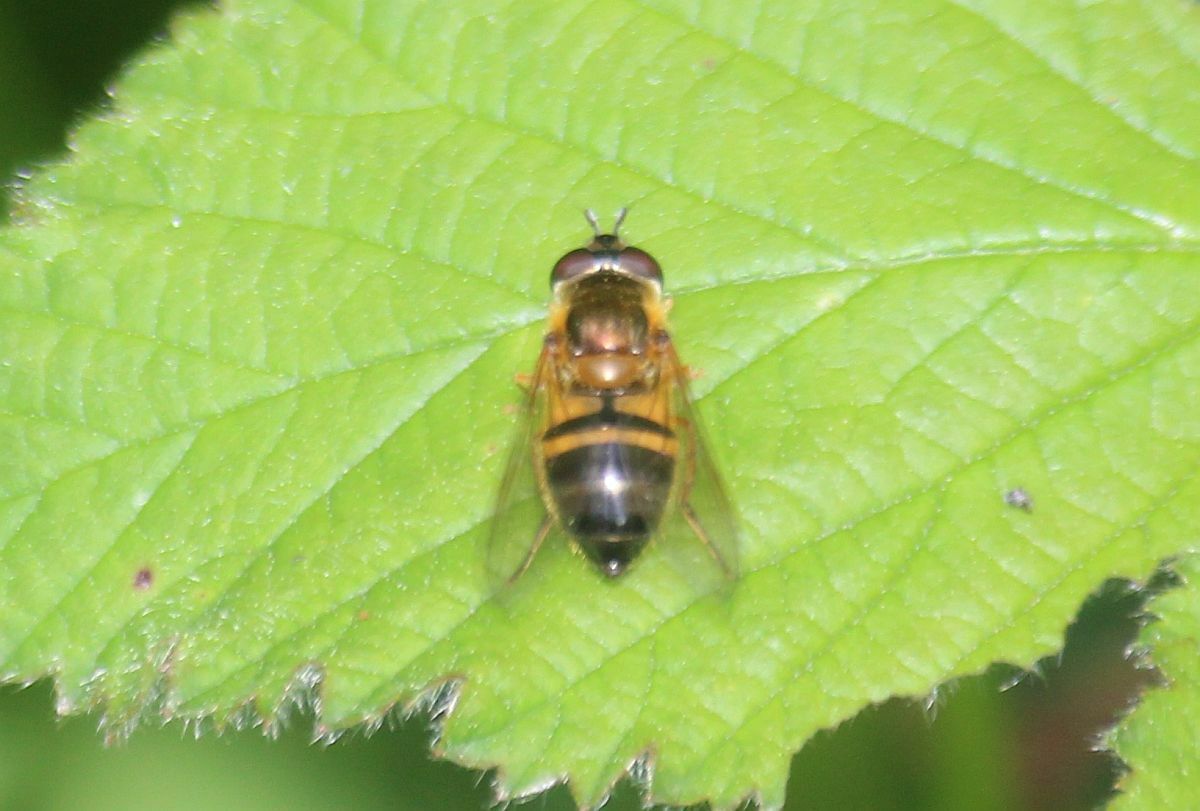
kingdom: Animalia
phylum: Arthropoda
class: Insecta
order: Diptera
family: Syrphidae
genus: Epistrophe
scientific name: Epistrophe eligans
